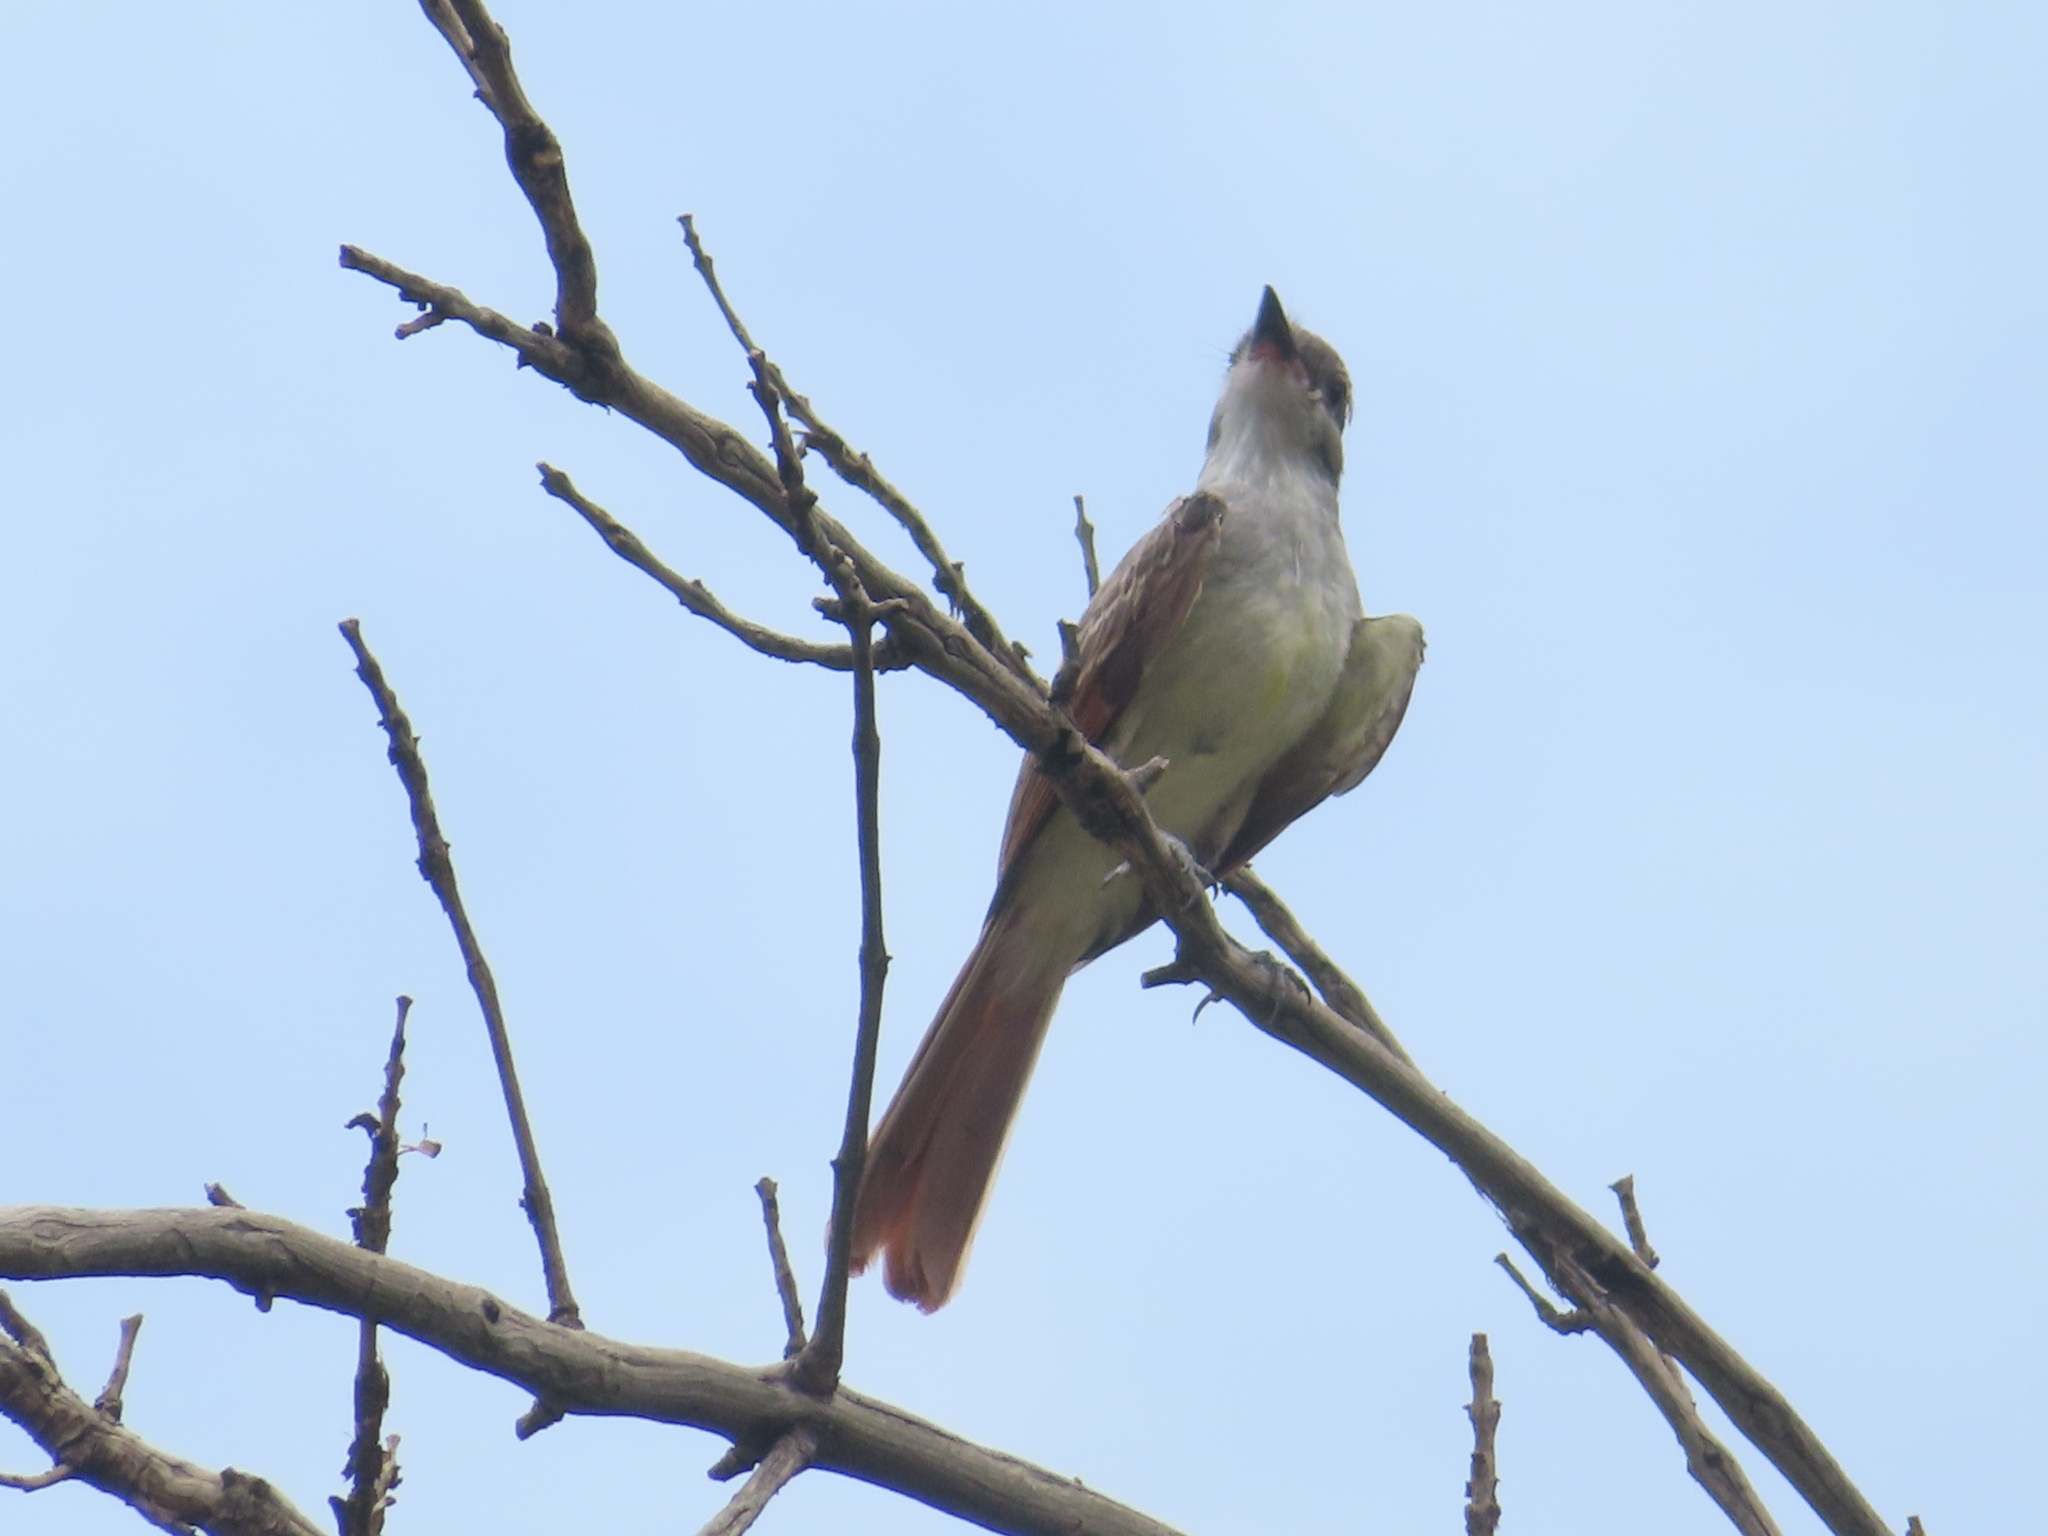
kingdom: Animalia
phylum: Chordata
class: Aves
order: Passeriformes
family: Tyrannidae
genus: Myiarchus
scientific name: Myiarchus cinerascens
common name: Ash-throated flycatcher
